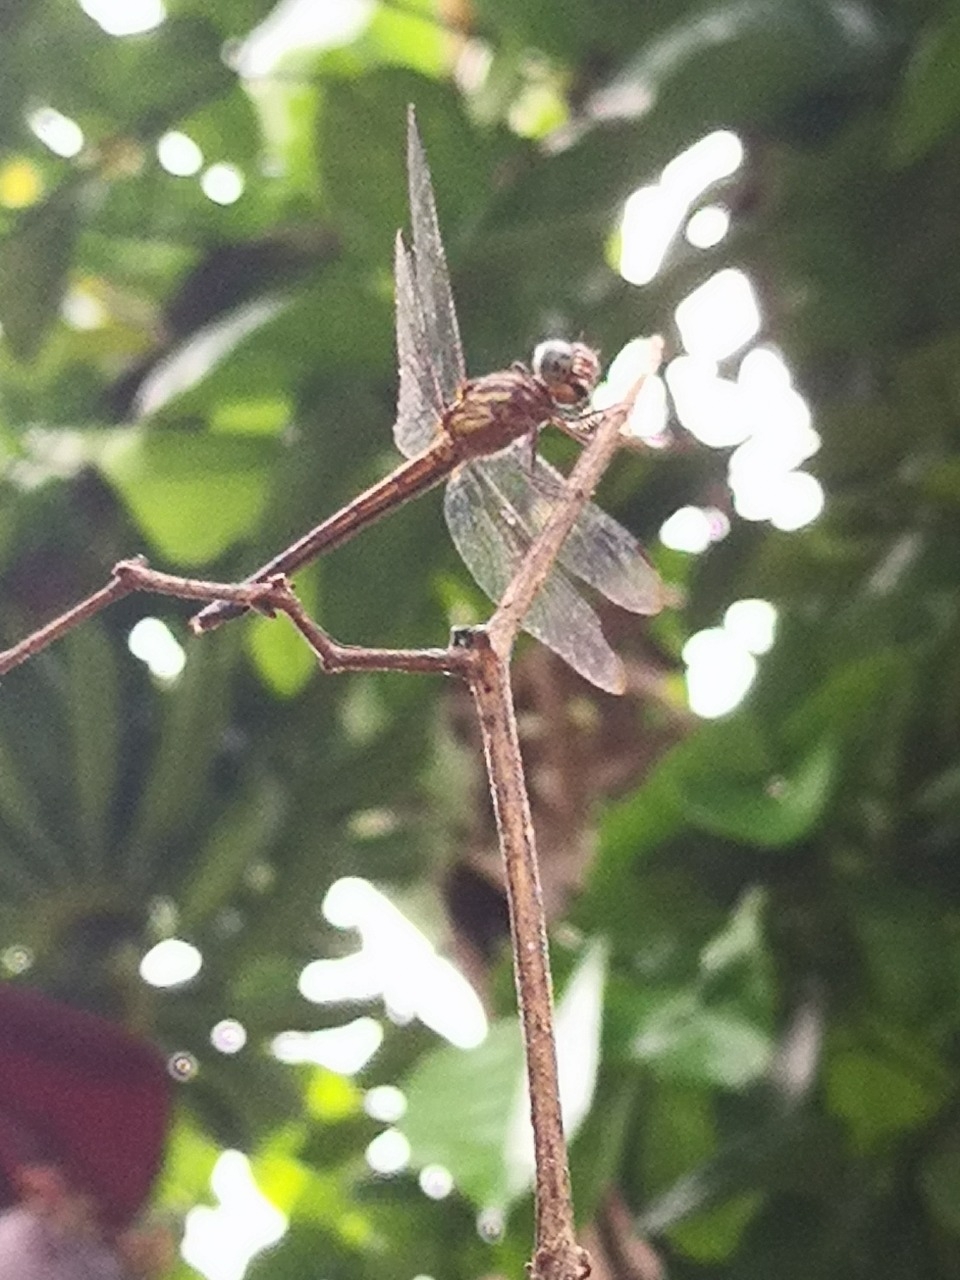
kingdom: Animalia
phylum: Arthropoda
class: Insecta
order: Odonata
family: Libellulidae
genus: Cannaphila
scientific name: Cannaphila insularis
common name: Gray-waisted skimmer
